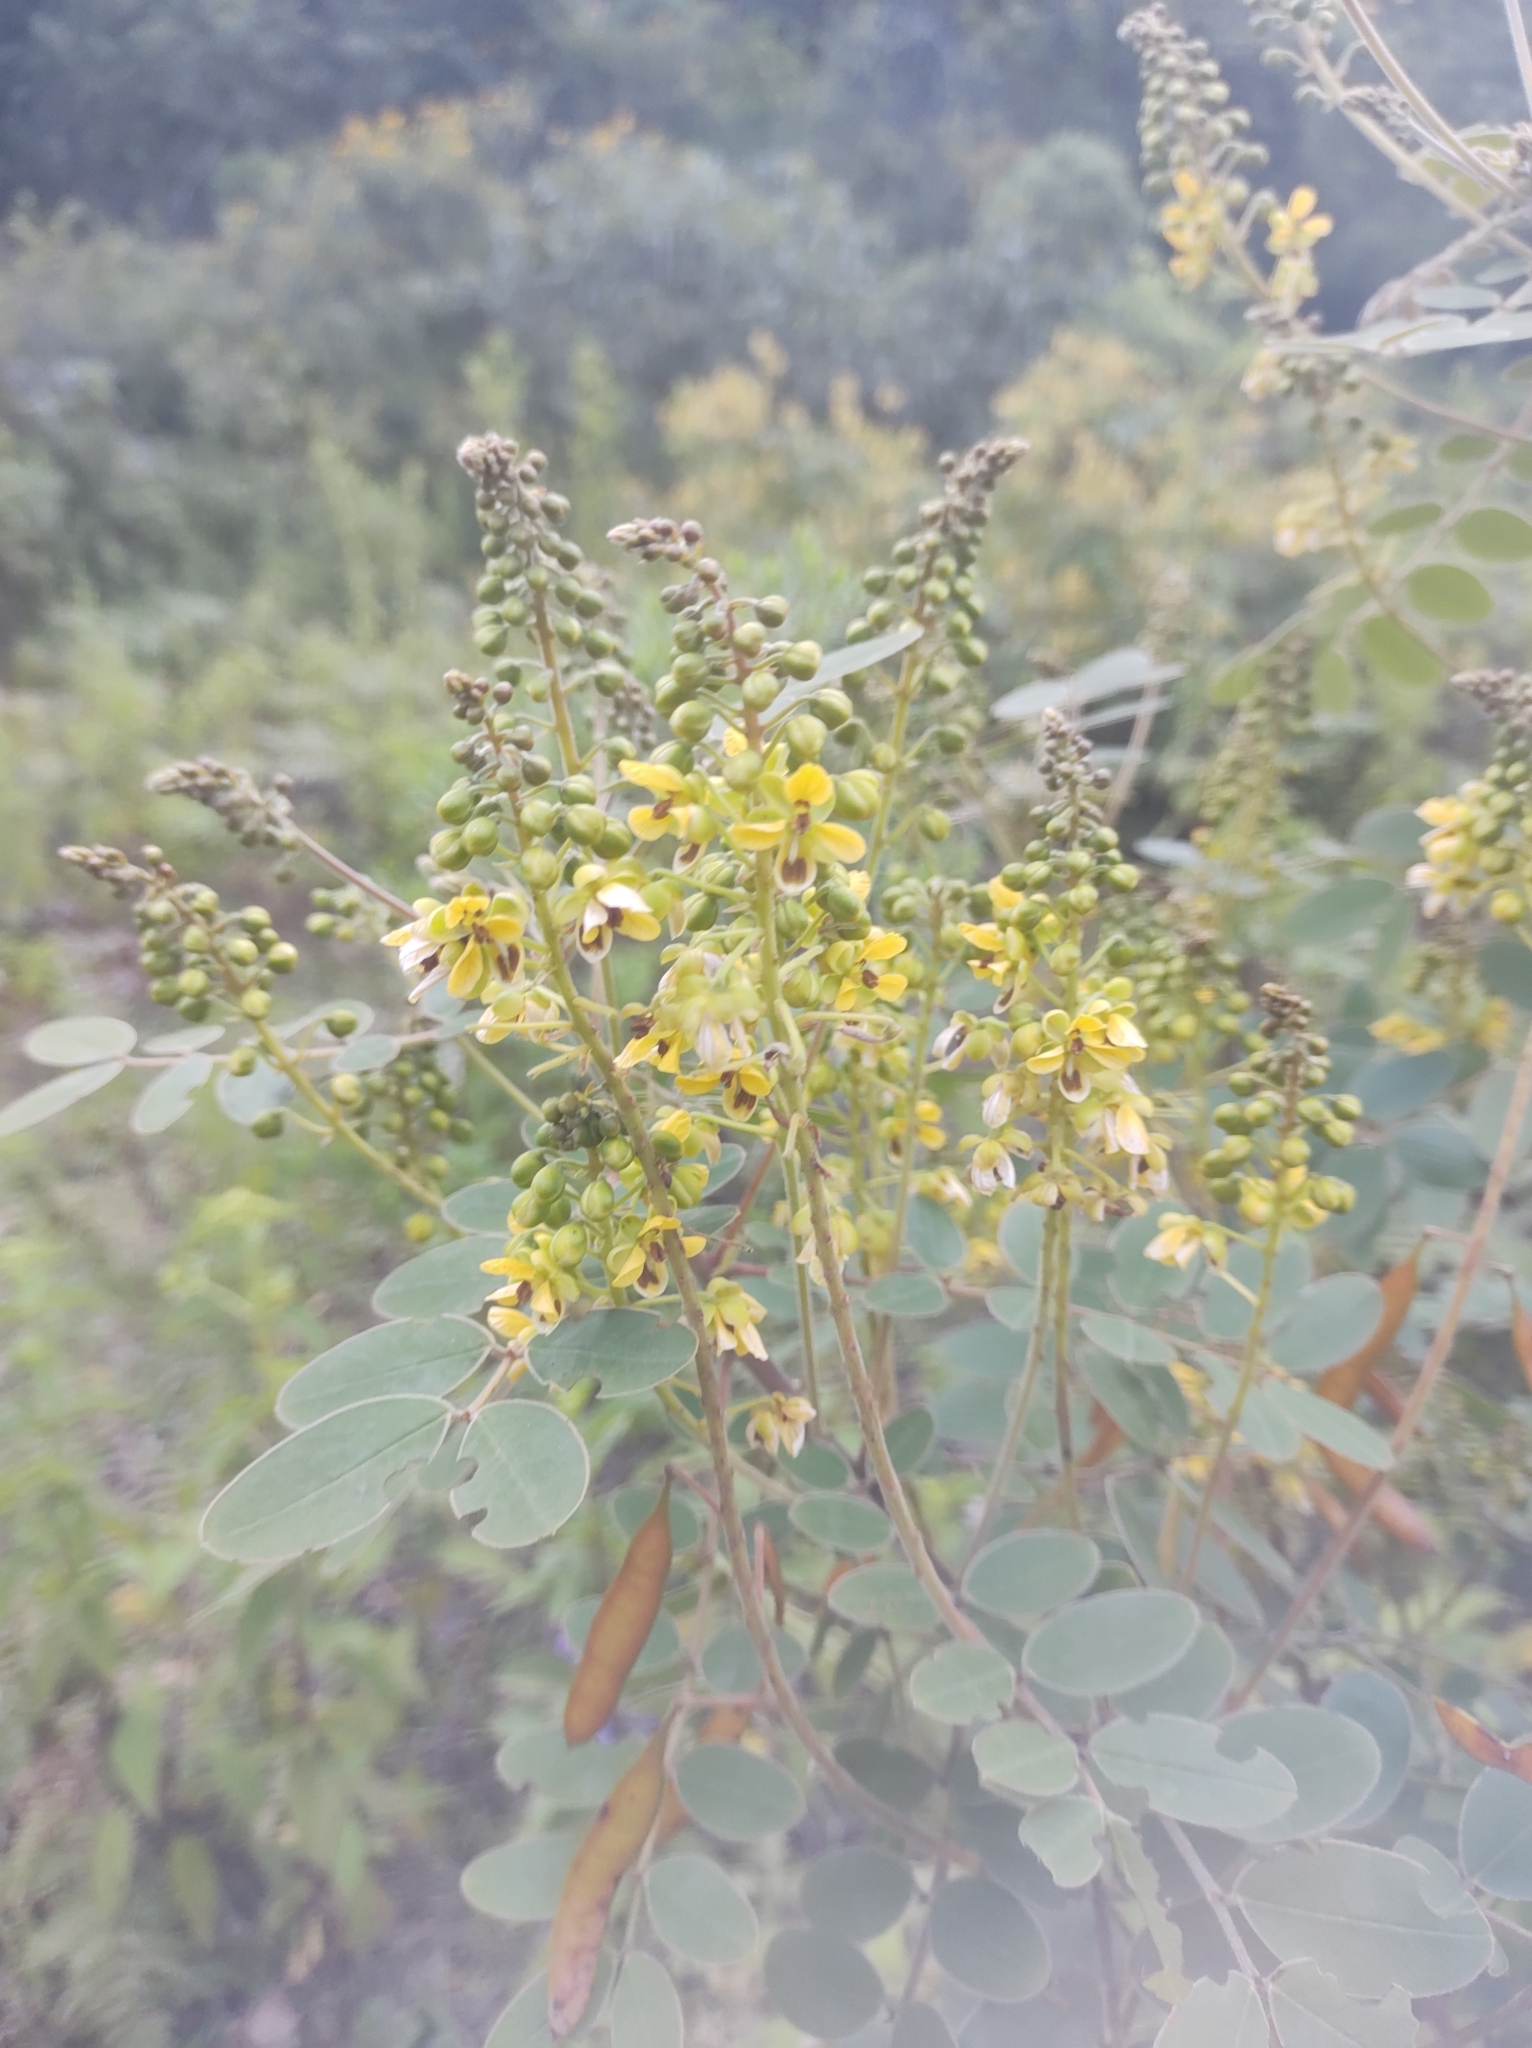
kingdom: Plantae
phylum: Tracheophyta
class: Magnoliopsida
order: Fabales
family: Fabaceae
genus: Senna
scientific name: Senna multiglandulosa
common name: Glandular senna
